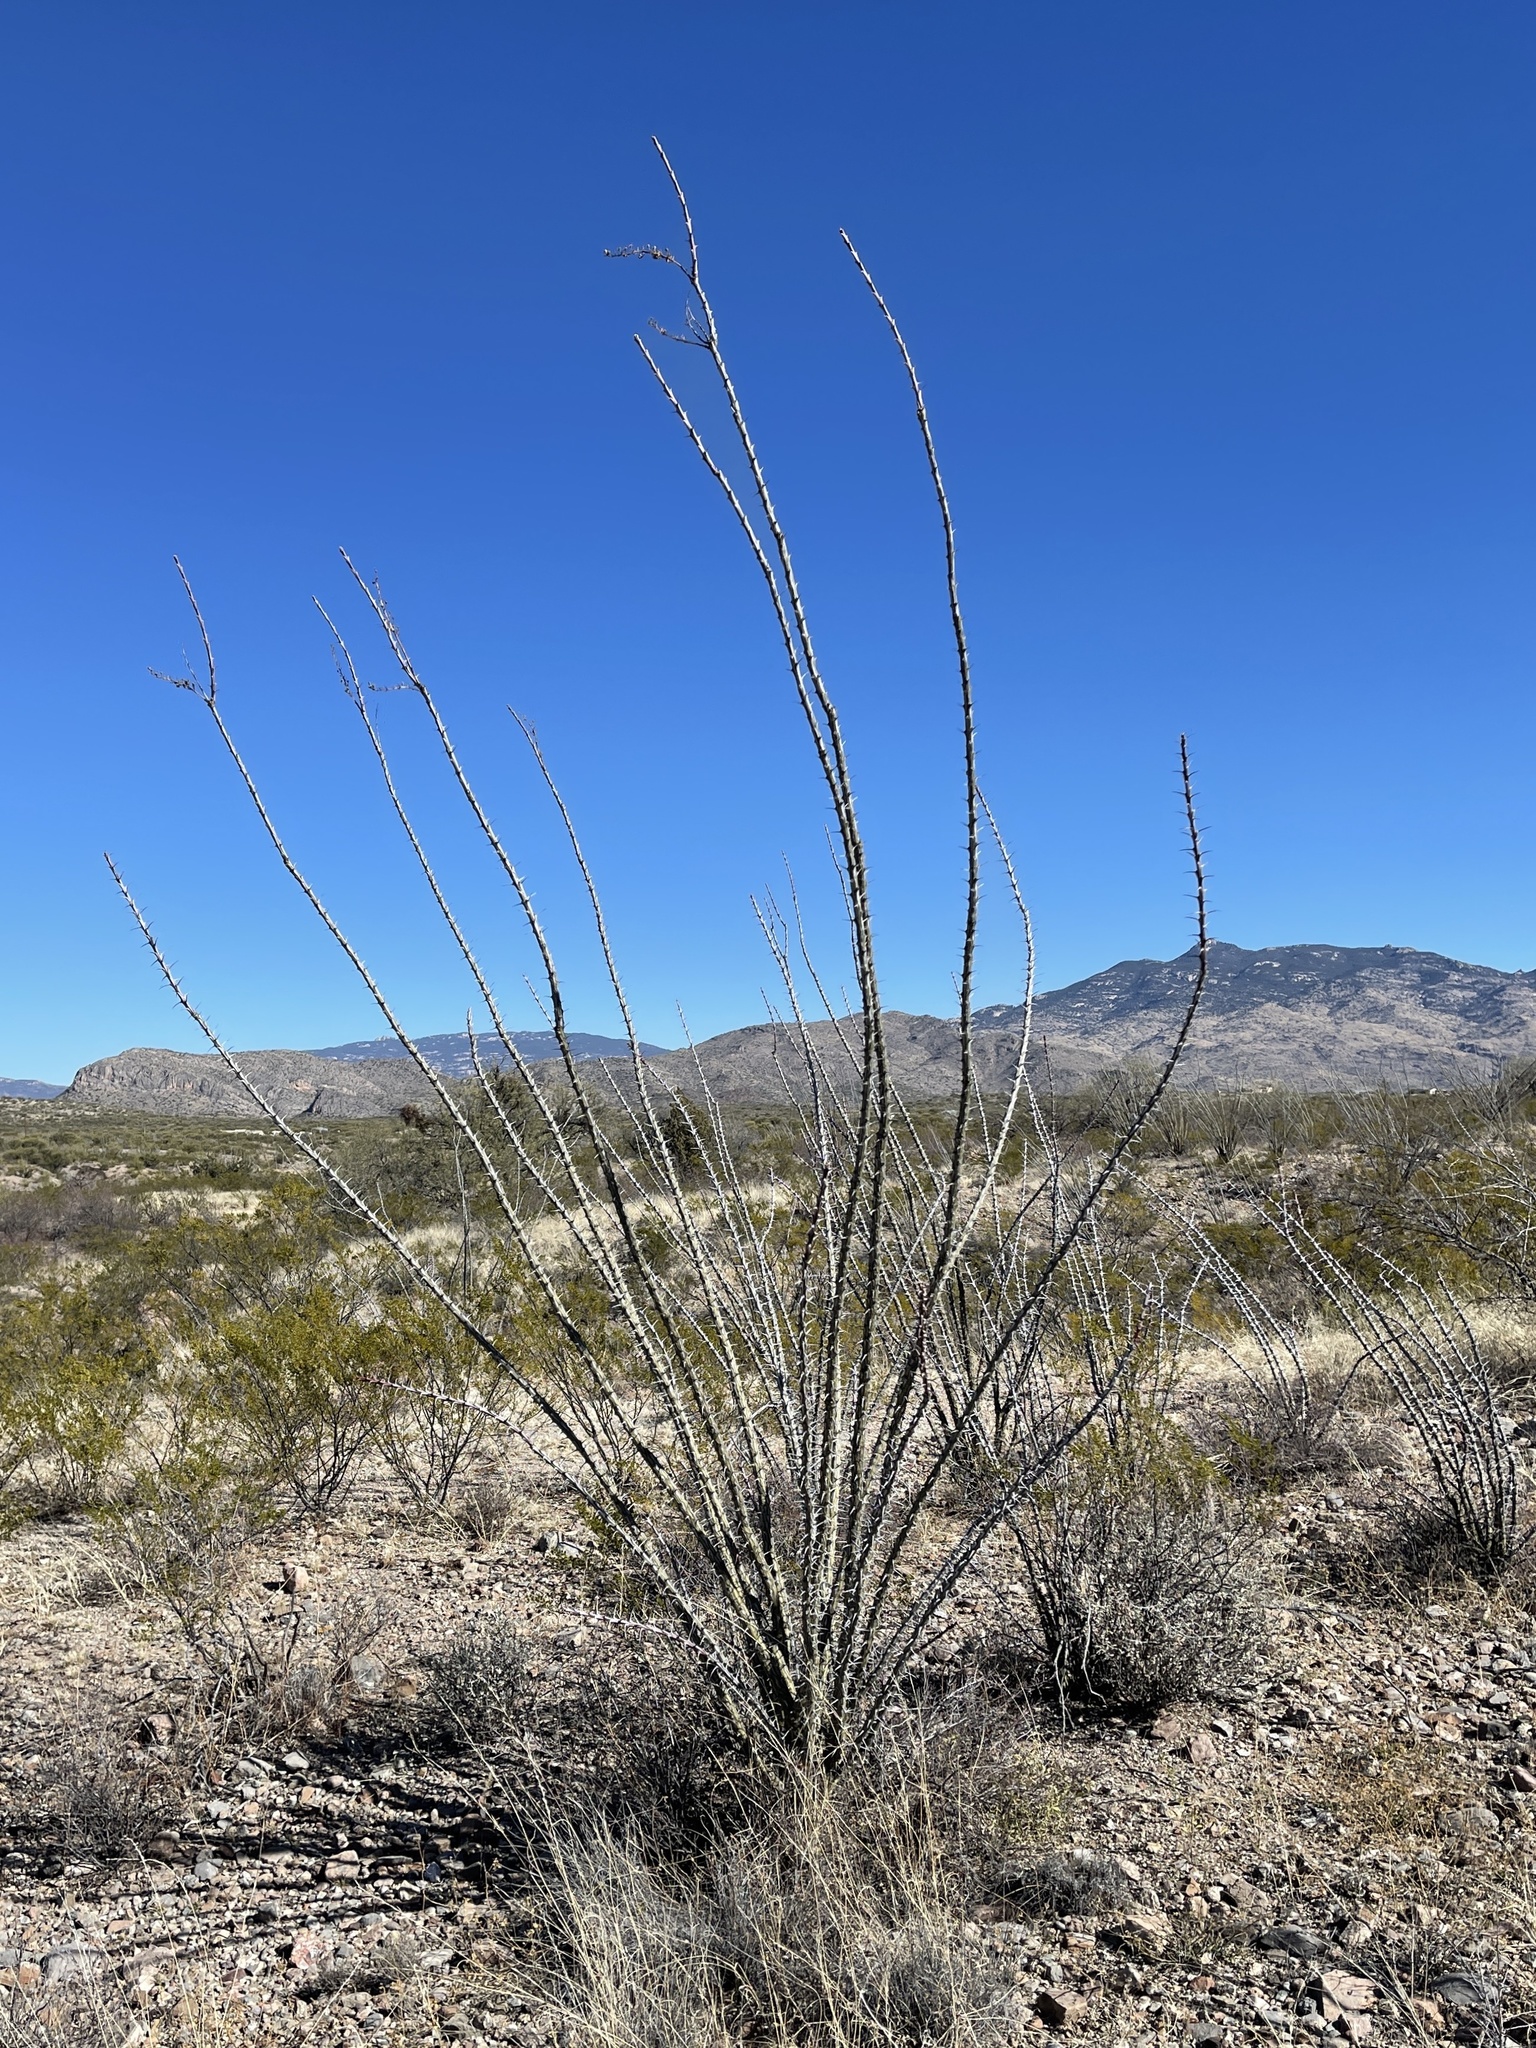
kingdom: Plantae
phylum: Tracheophyta
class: Magnoliopsida
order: Ericales
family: Fouquieriaceae
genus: Fouquieria
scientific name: Fouquieria splendens
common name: Vine-cactus
